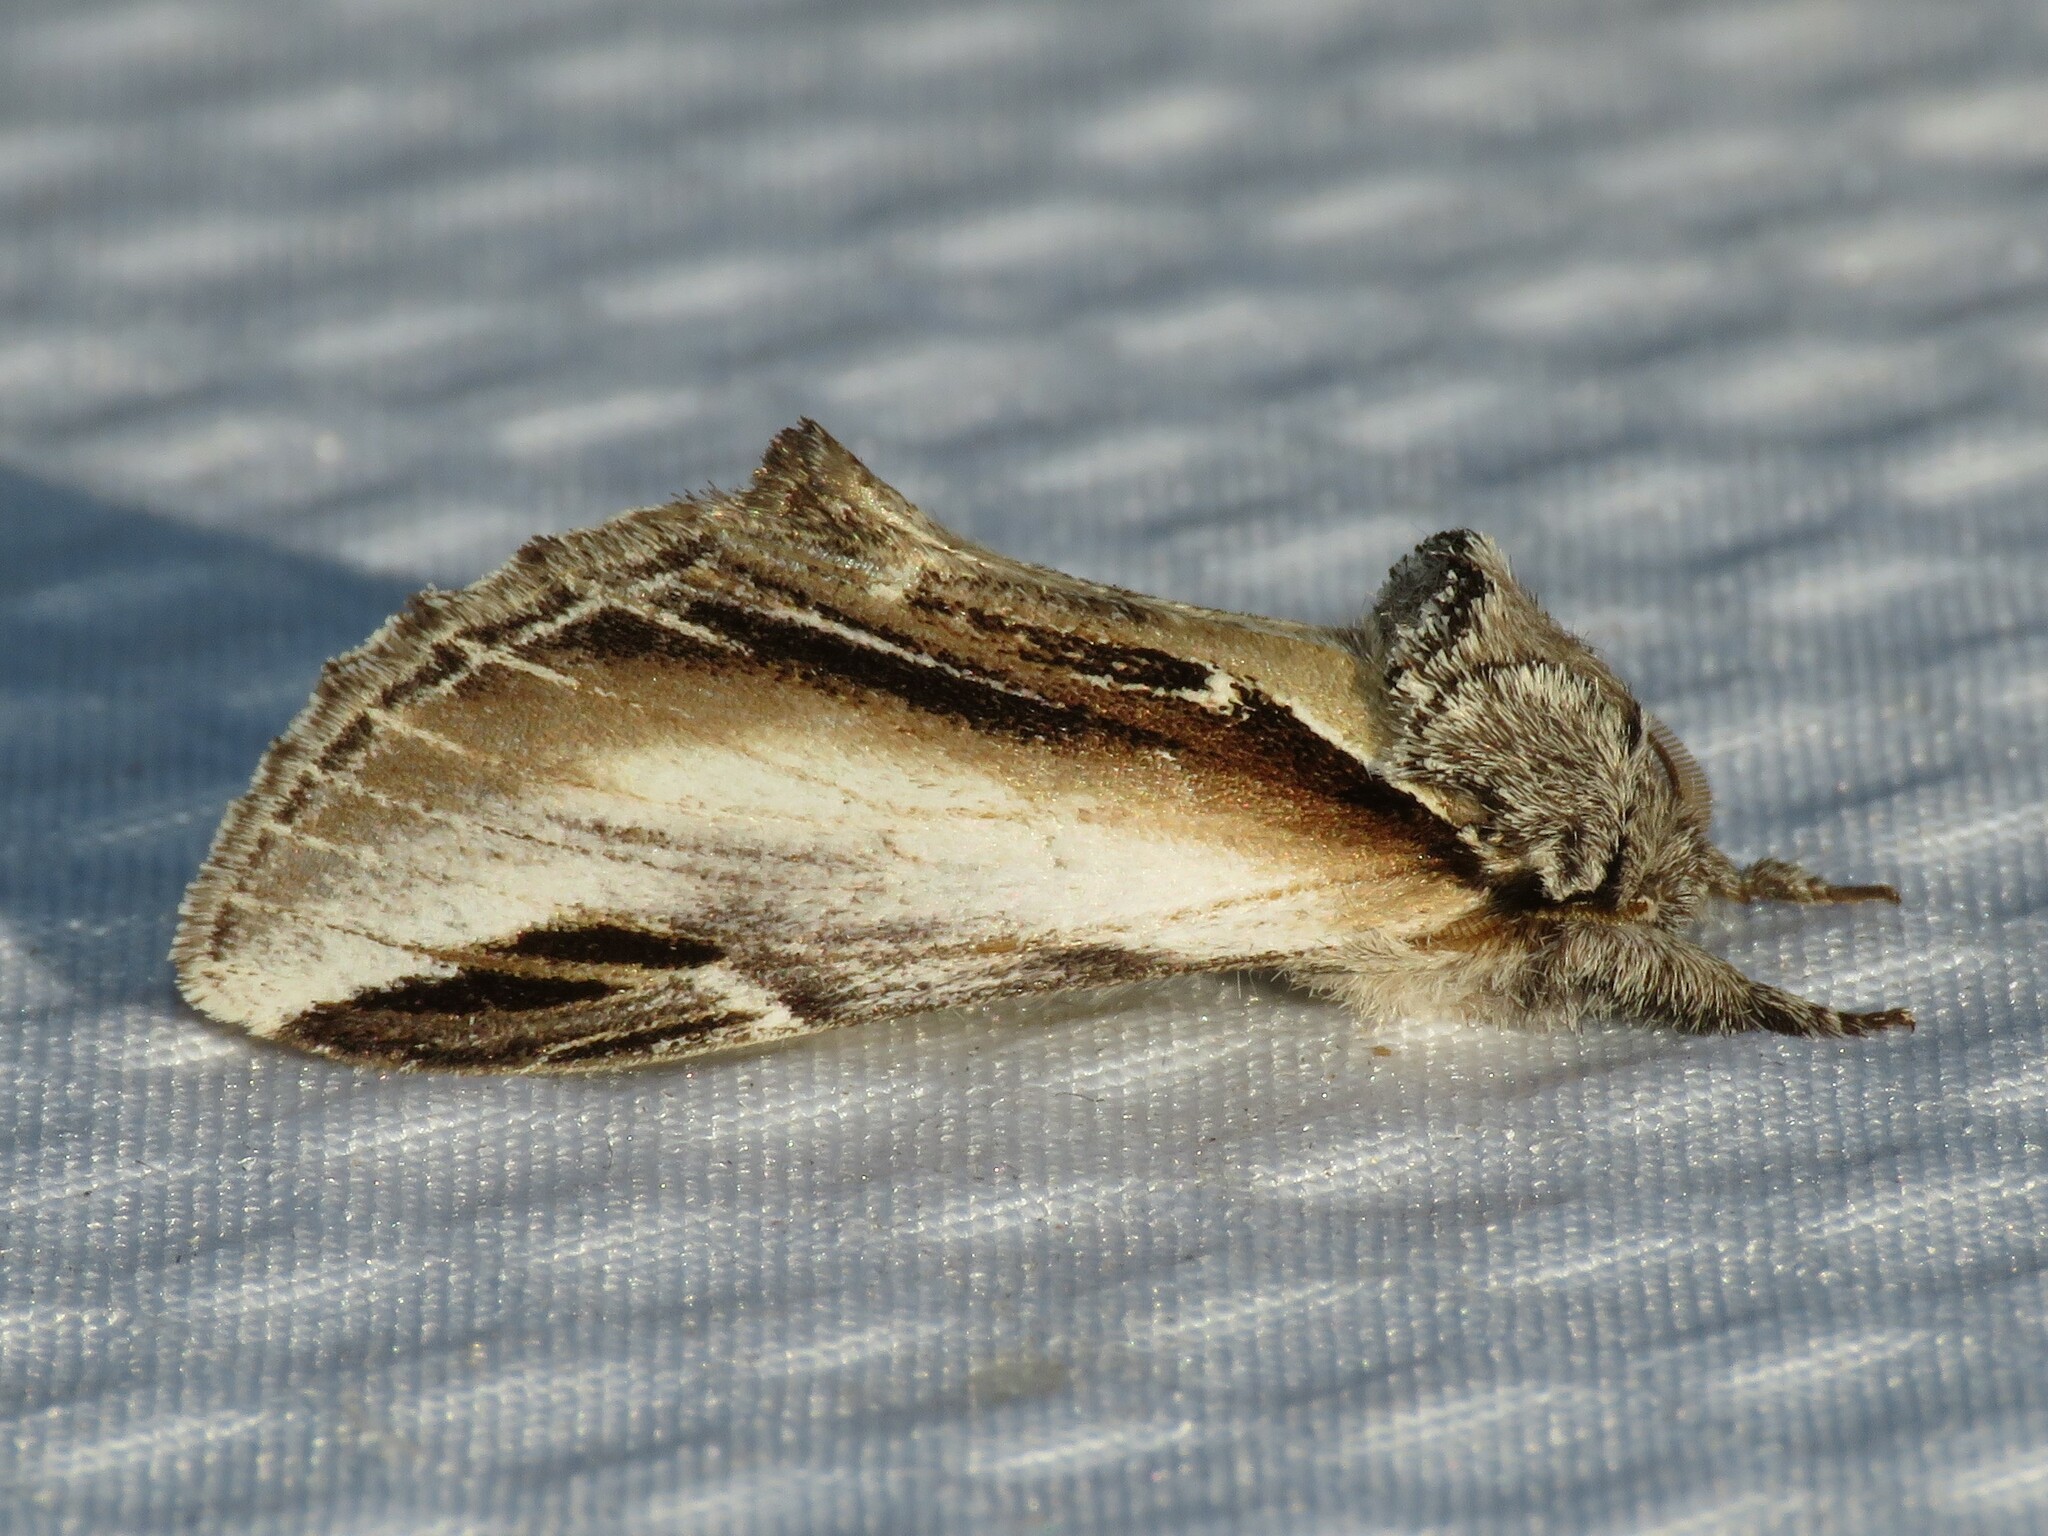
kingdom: Animalia
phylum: Arthropoda
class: Insecta
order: Lepidoptera
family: Notodontidae
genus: Pheosia
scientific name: Pheosia rimosa
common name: Black-rimmed prominent
